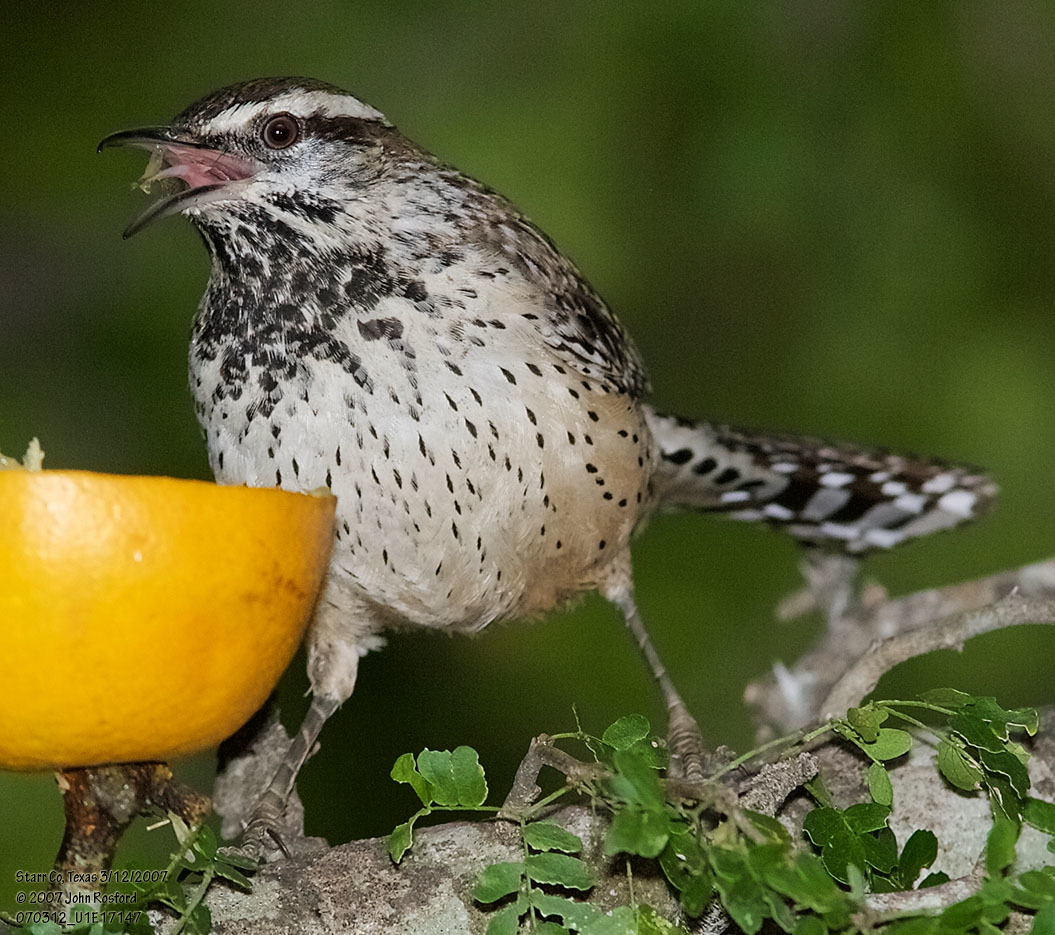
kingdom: Animalia
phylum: Chordata
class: Aves
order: Passeriformes
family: Troglodytidae
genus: Campylorhynchus
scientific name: Campylorhynchus brunneicapillus
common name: Cactus wren
